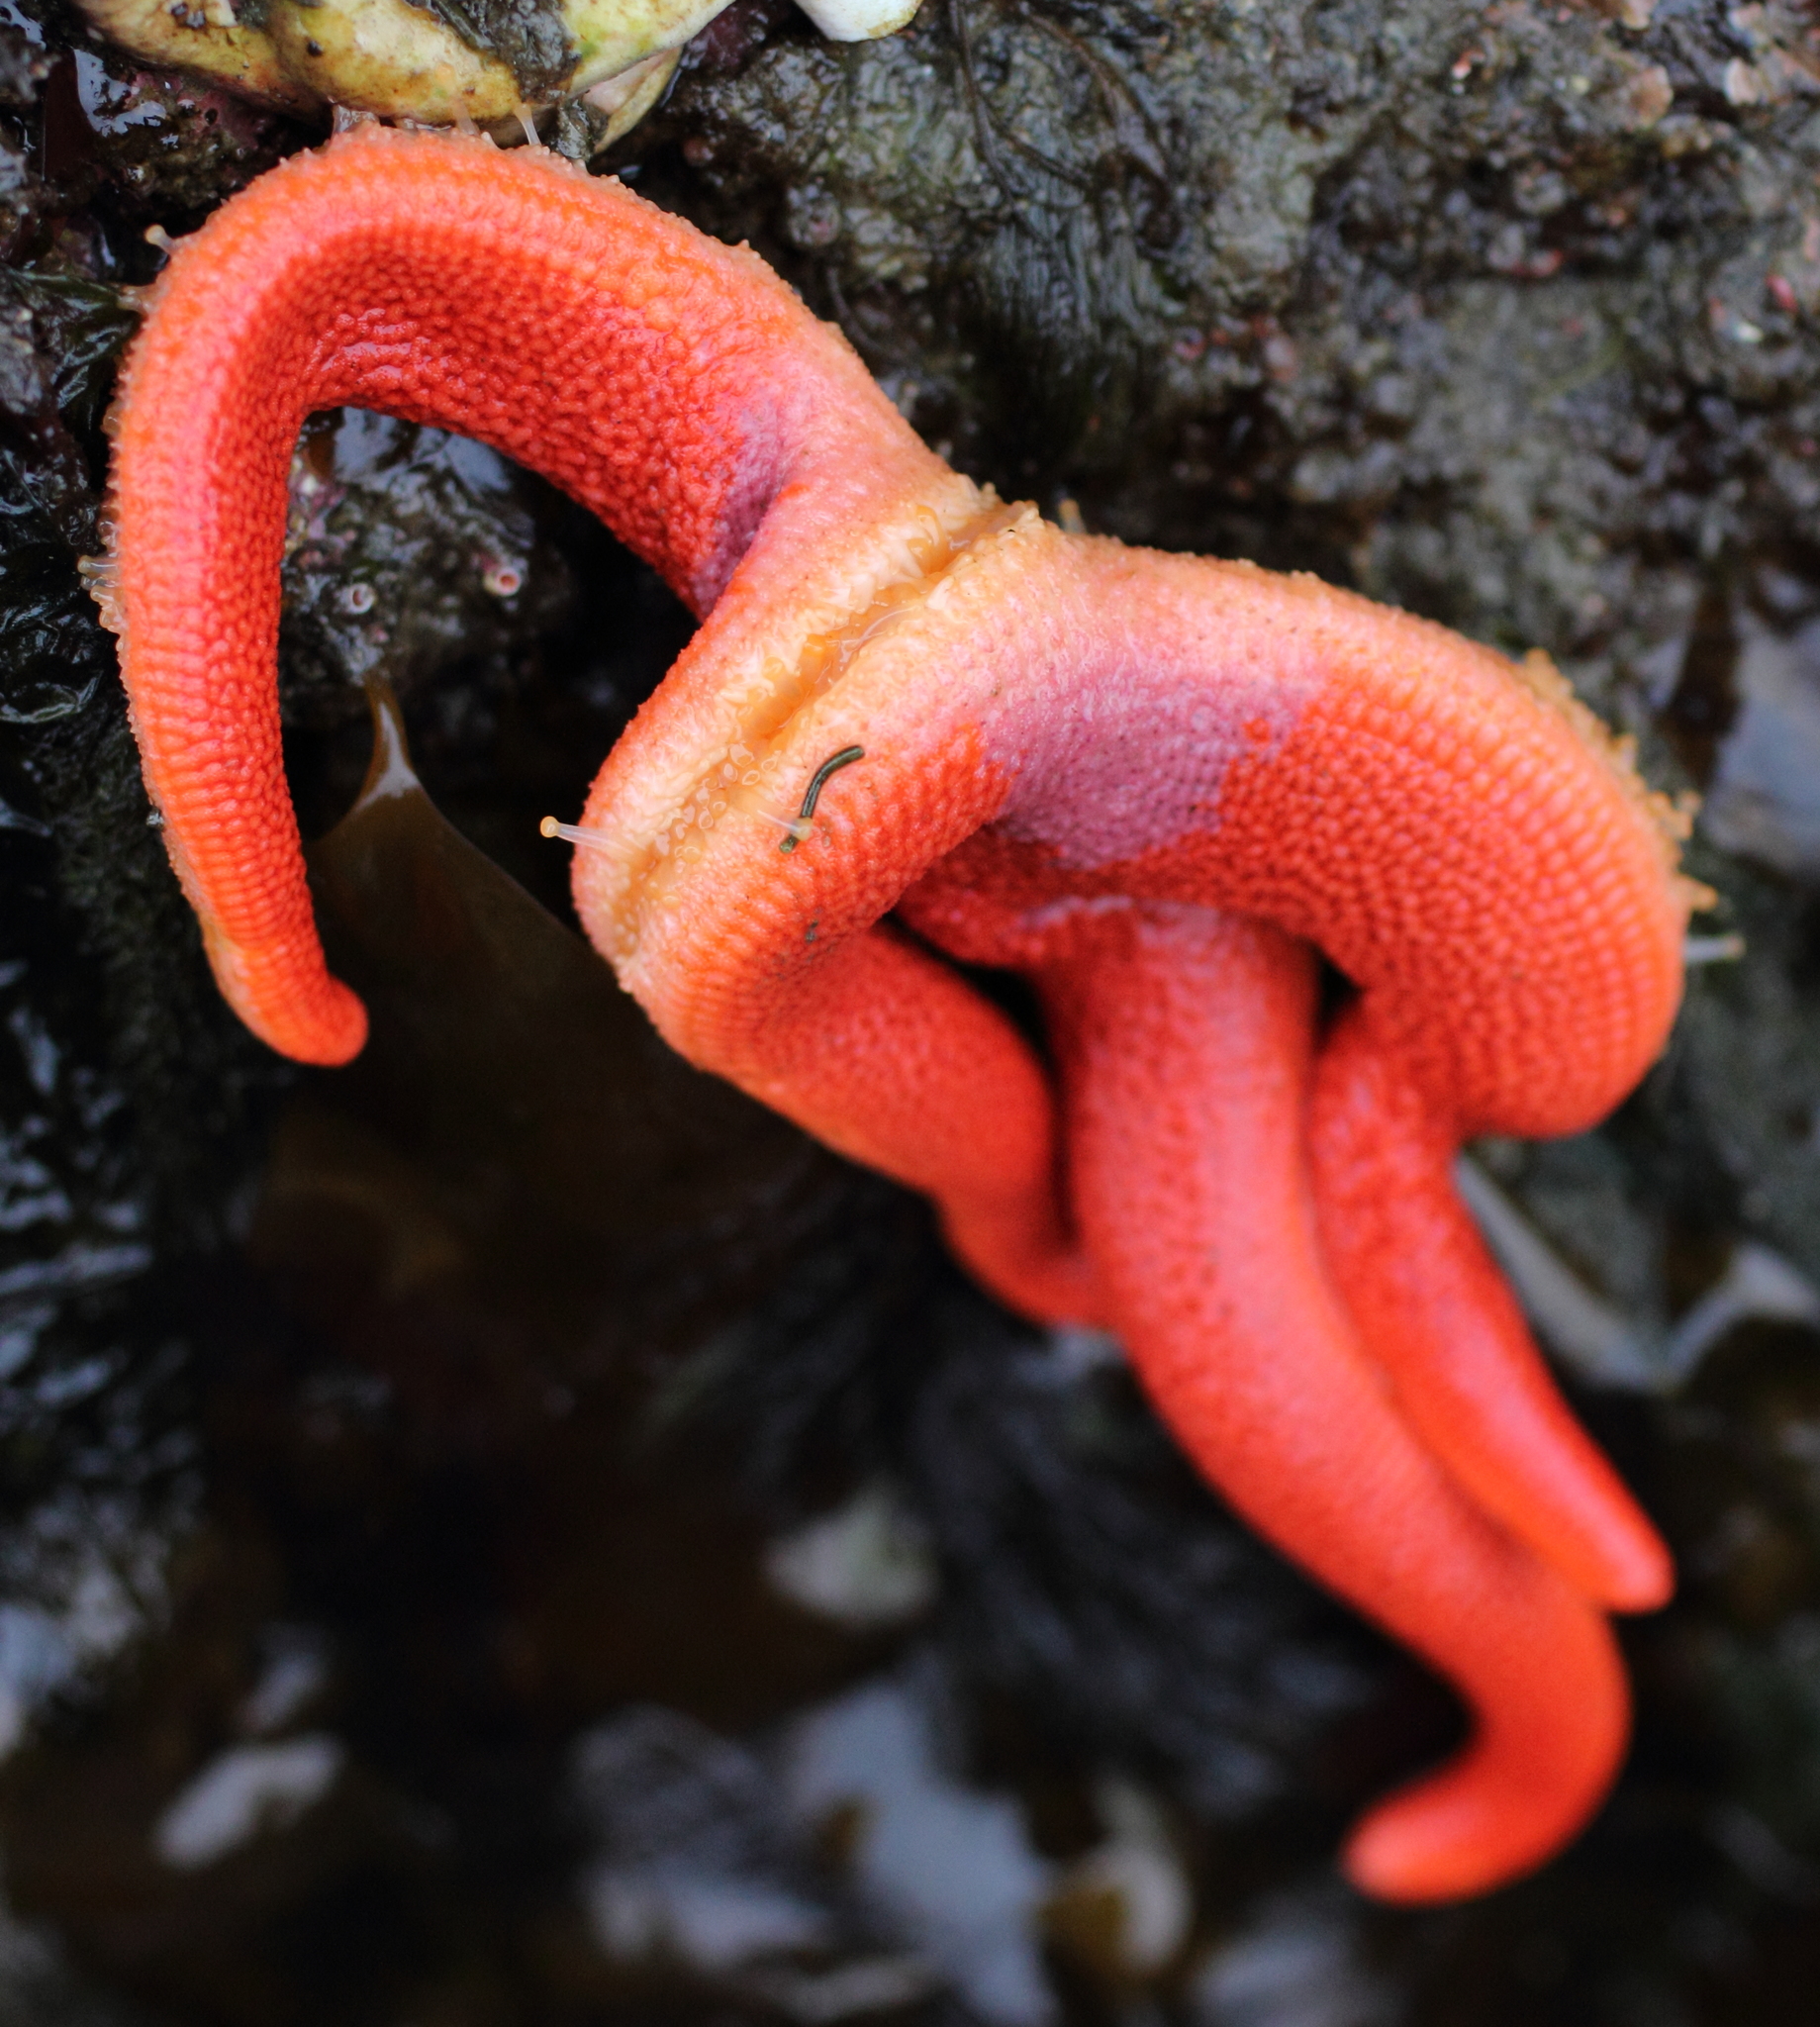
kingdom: Animalia
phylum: Echinodermata
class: Asteroidea
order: Spinulosida
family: Echinasteridae
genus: Henricia
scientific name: Henricia leviuscula
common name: Pacific blood star
